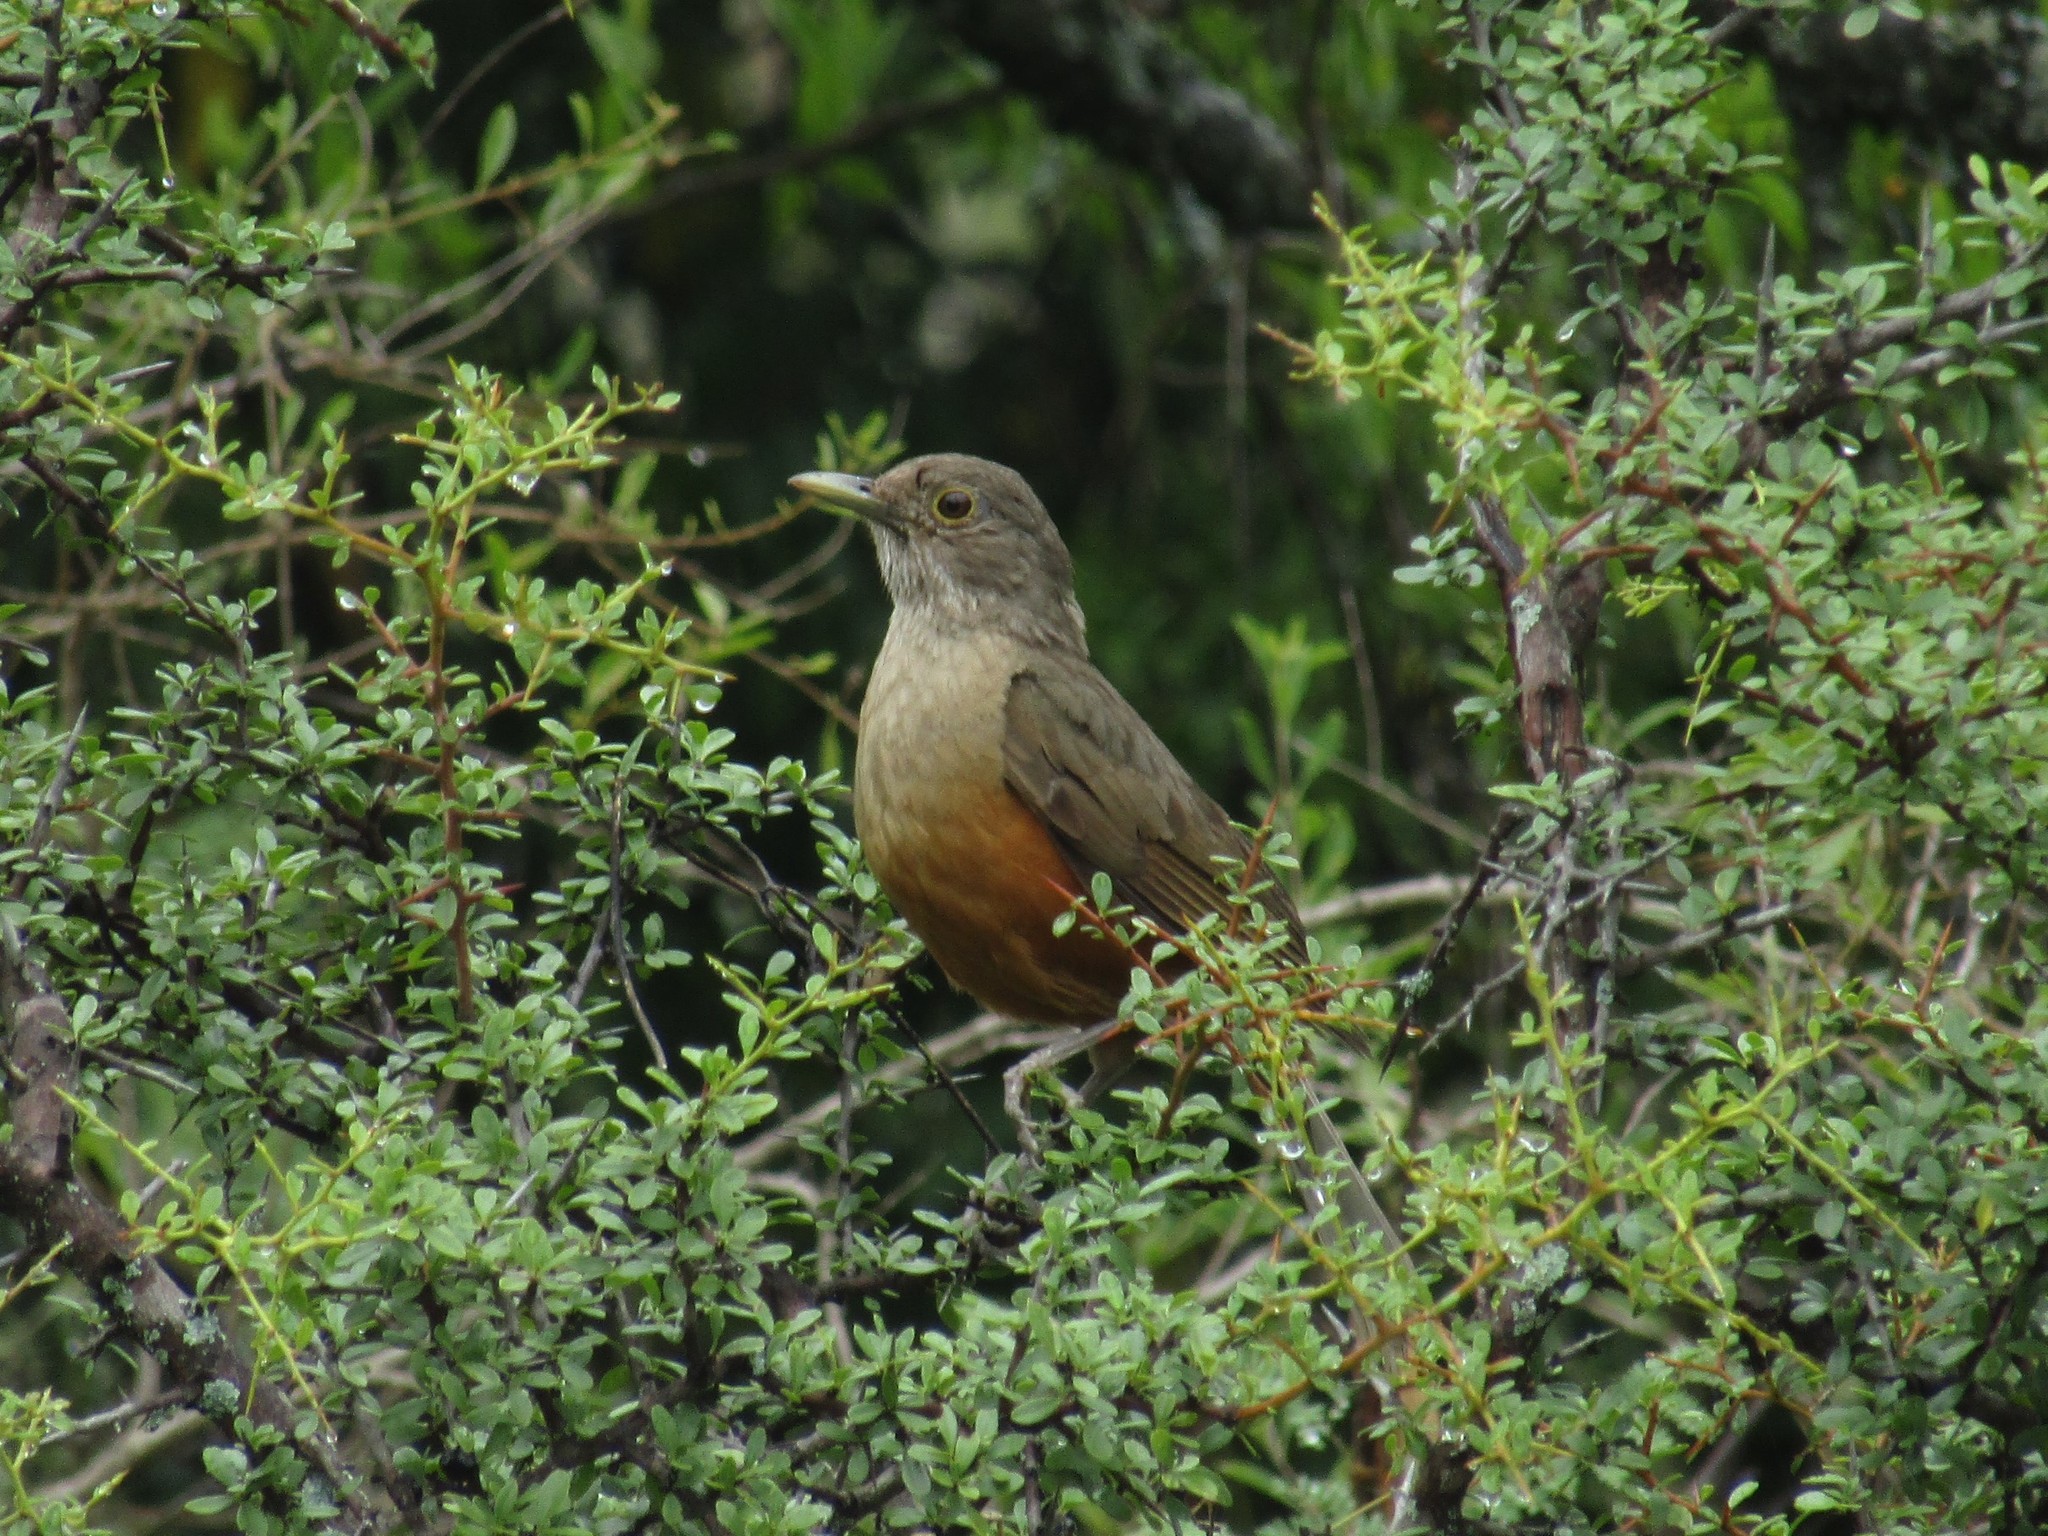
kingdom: Animalia
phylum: Chordata
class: Aves
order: Passeriformes
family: Turdidae
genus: Turdus
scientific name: Turdus rufiventris
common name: Rufous-bellied thrush
